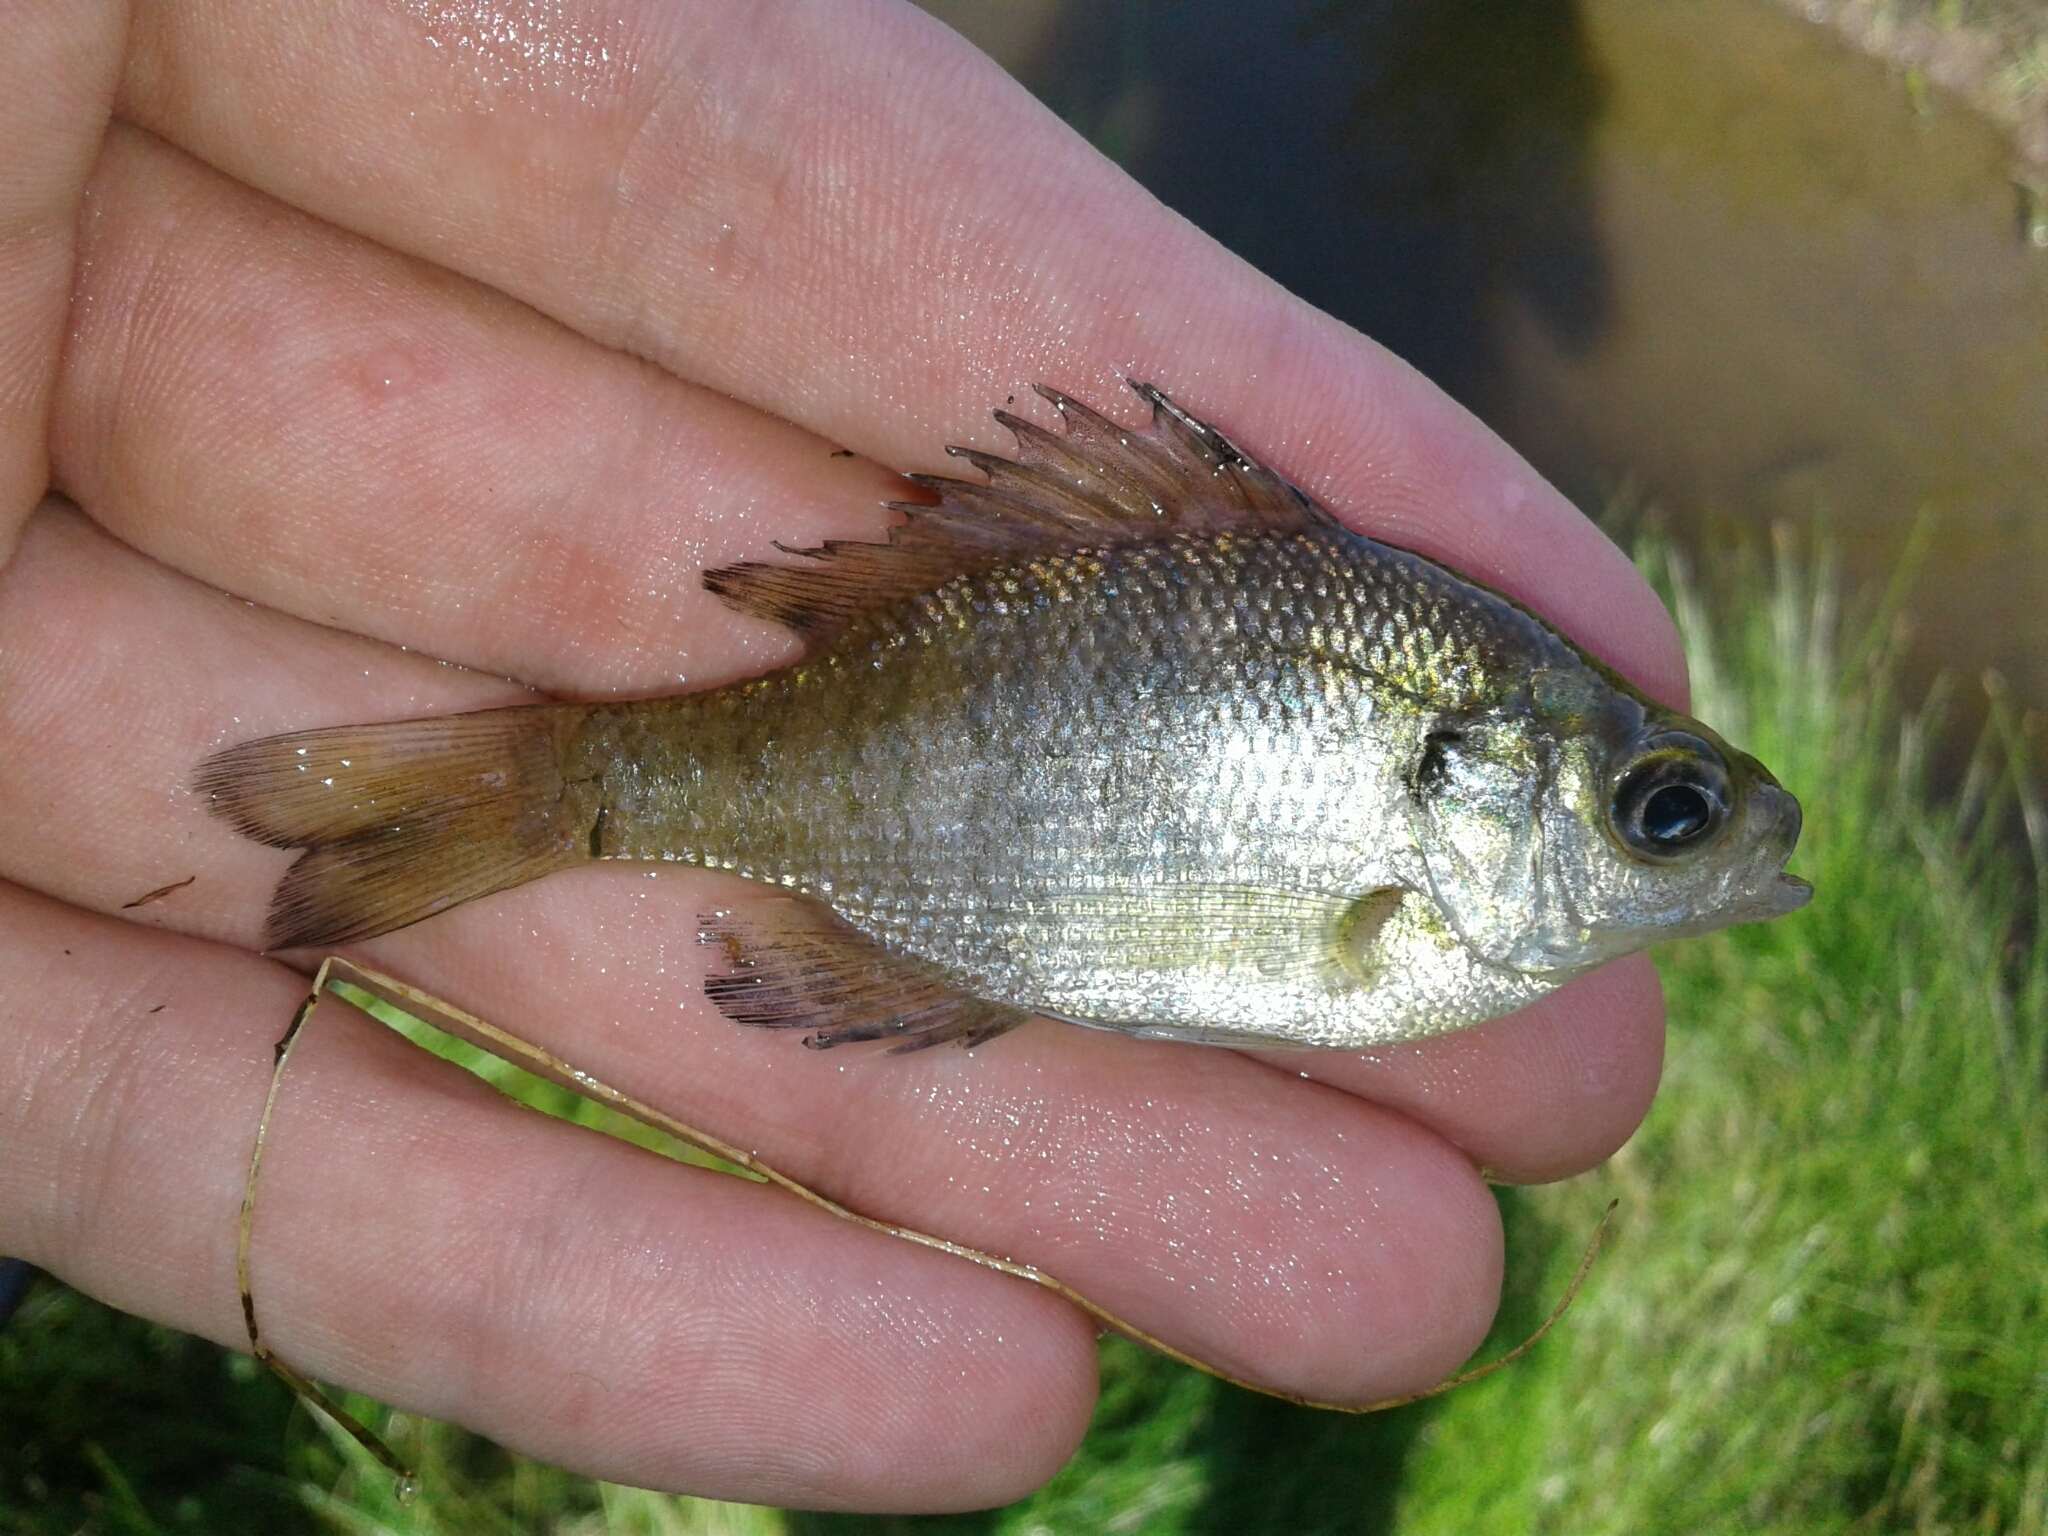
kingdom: Animalia
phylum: Chordata
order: Perciformes
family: Centrarchidae
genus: Lepomis
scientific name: Lepomis macrochirus
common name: Bluegill
